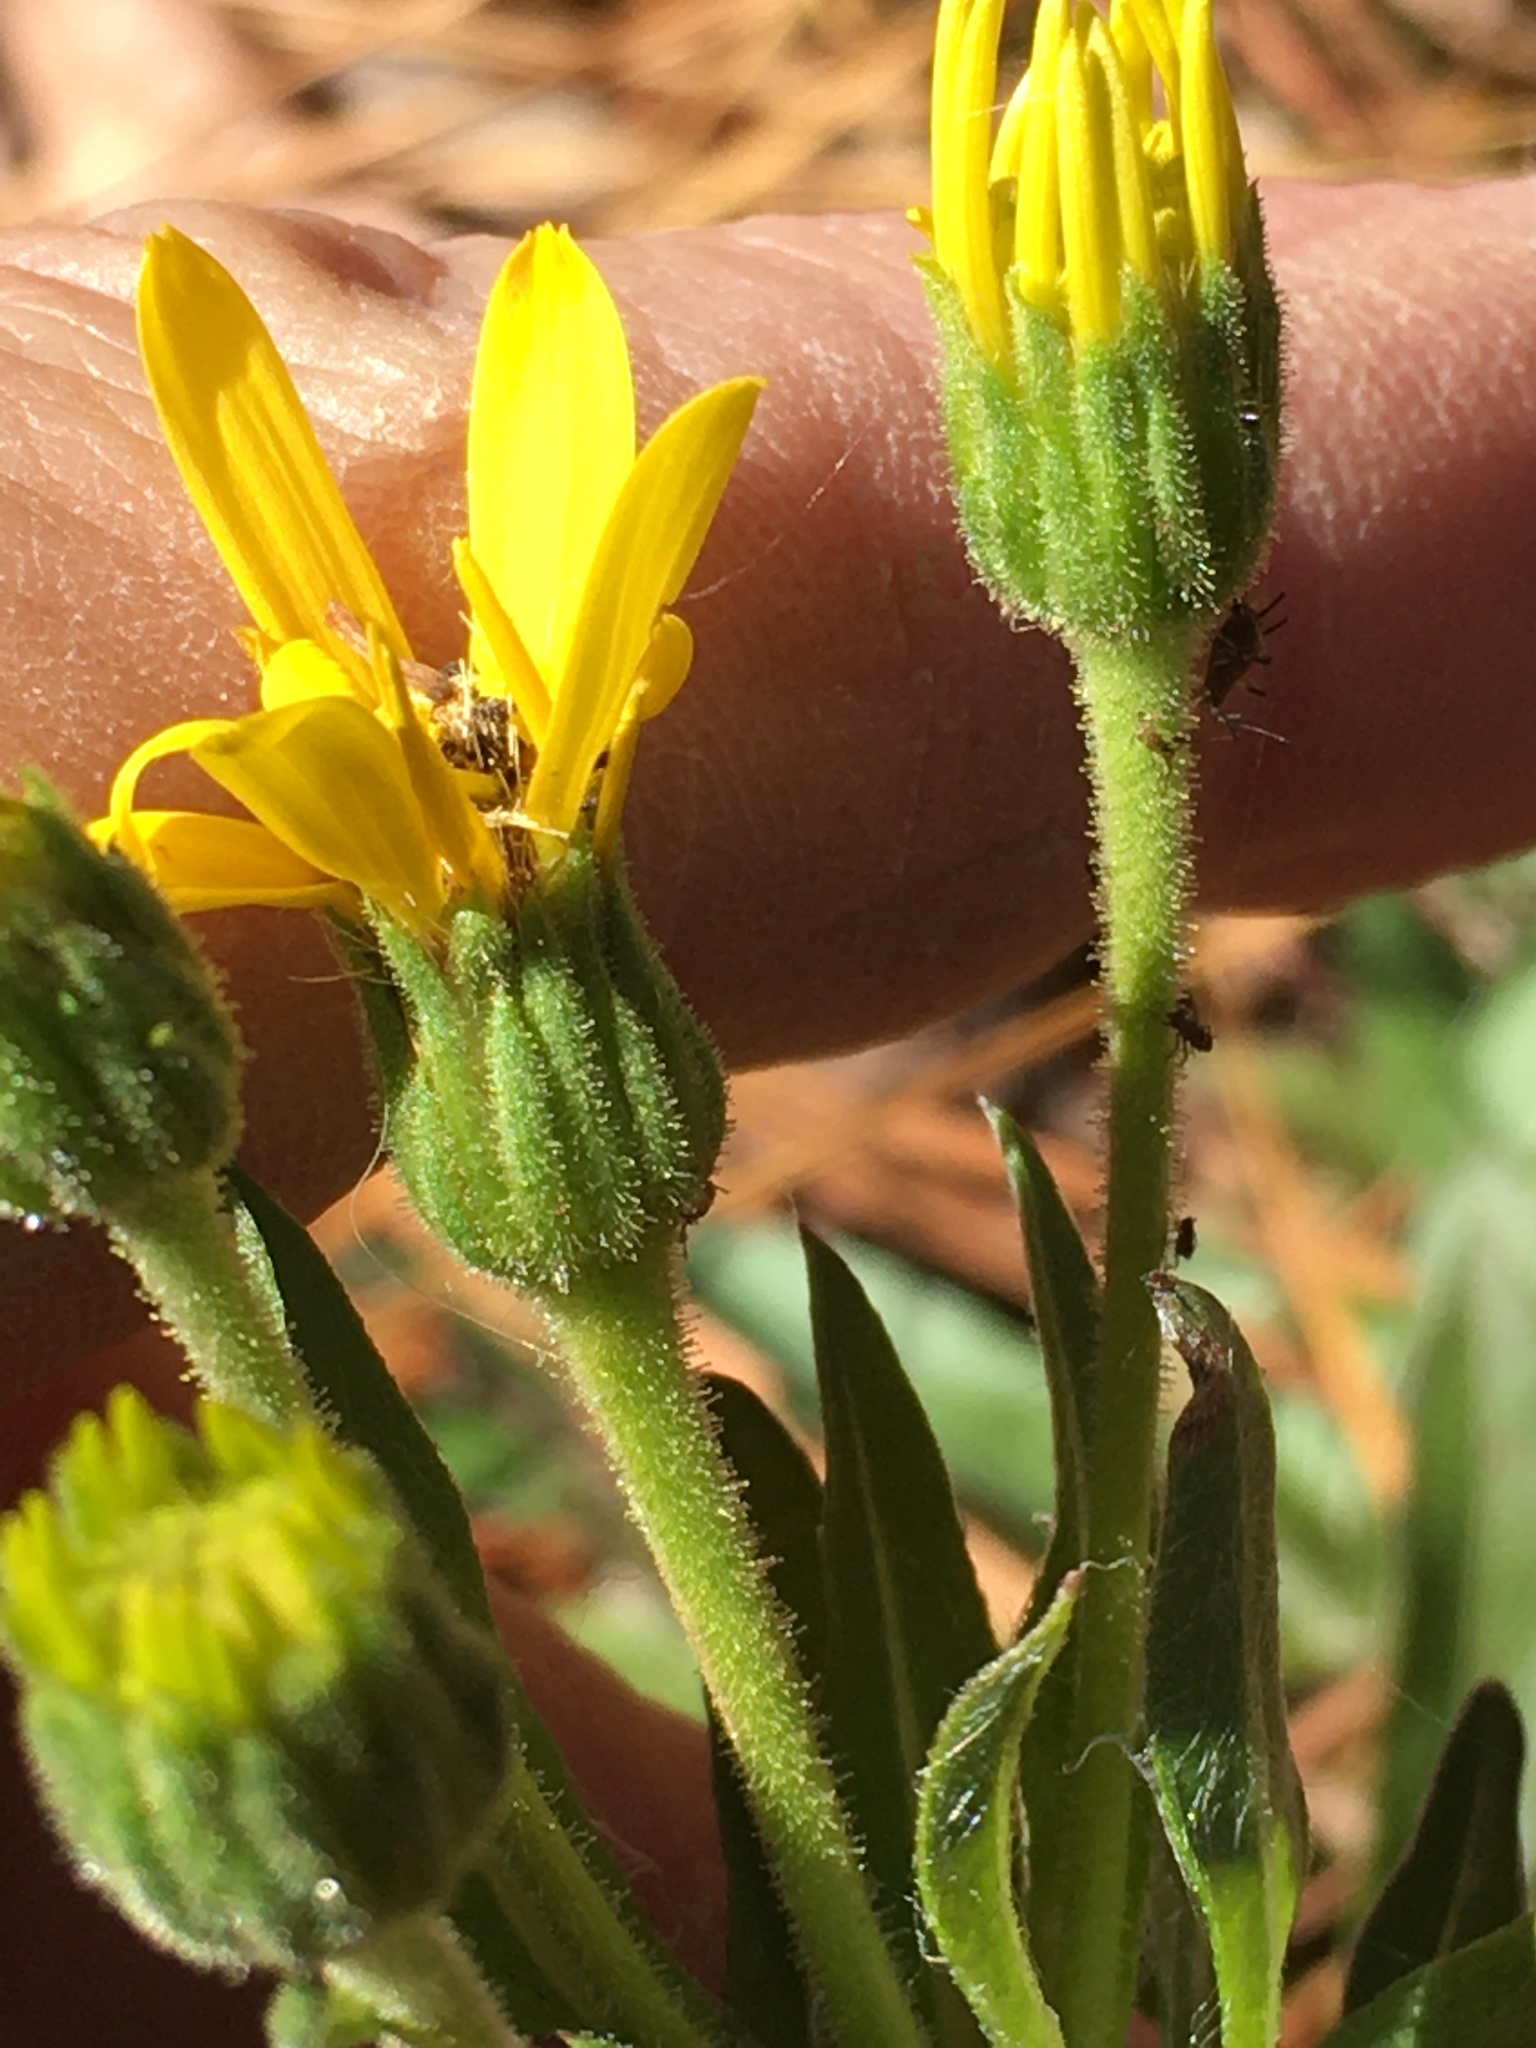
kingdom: Plantae
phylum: Tracheophyta
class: Magnoliopsida
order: Asterales
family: Asteraceae
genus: Chrysopsis
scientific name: Chrysopsis mariana
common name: Maryland golden-aster
